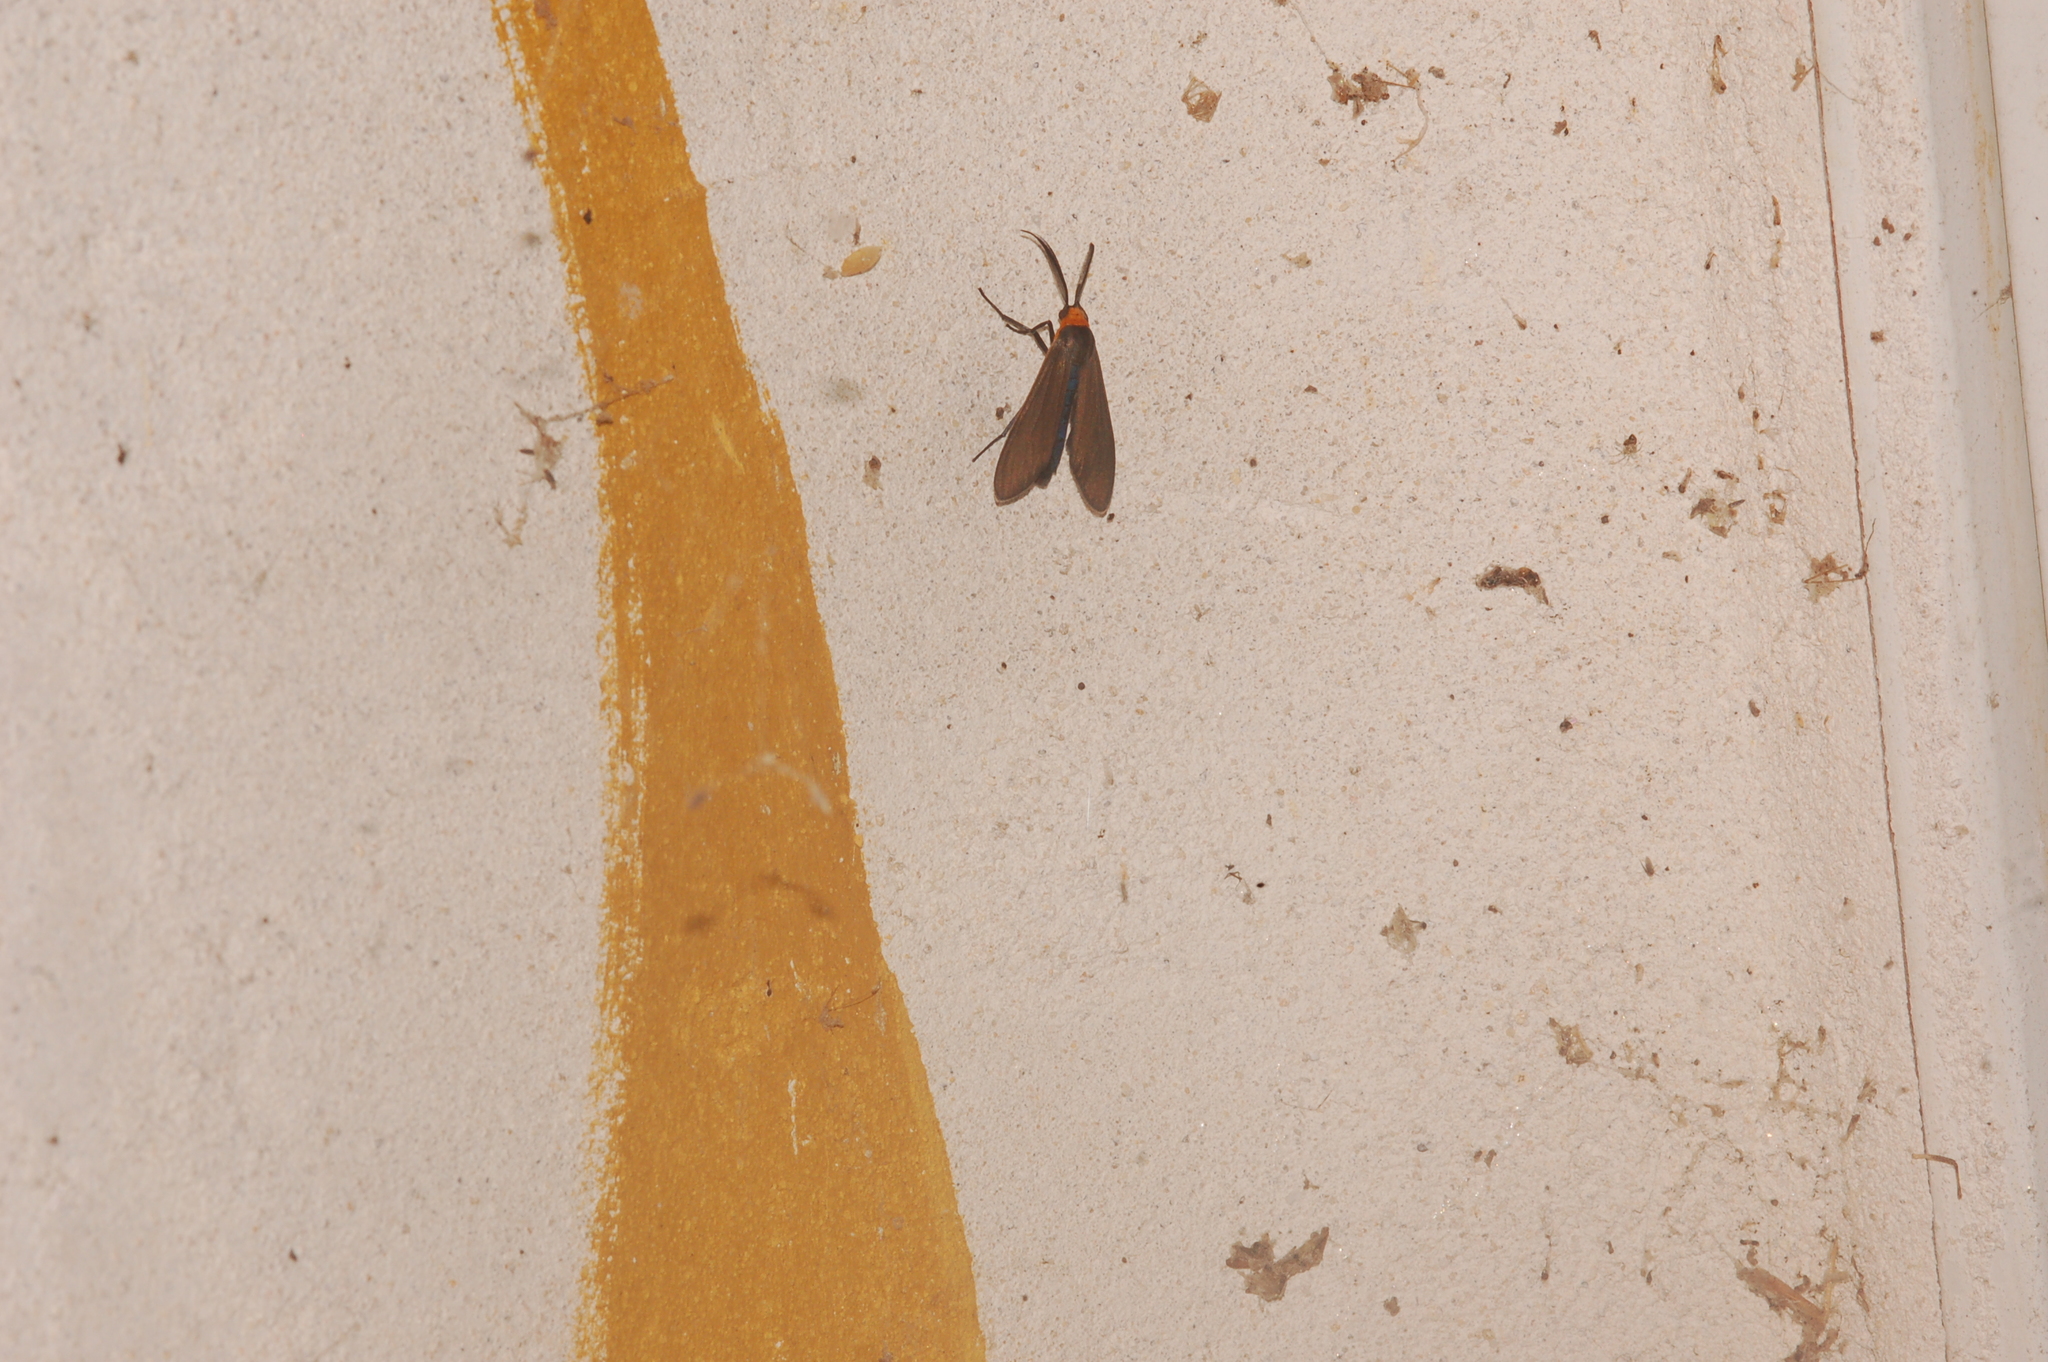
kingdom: Animalia
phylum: Arthropoda
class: Insecta
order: Lepidoptera
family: Erebidae
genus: Cisseps
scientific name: Cisseps fulvicollis
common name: Yellow-collared scape moth
